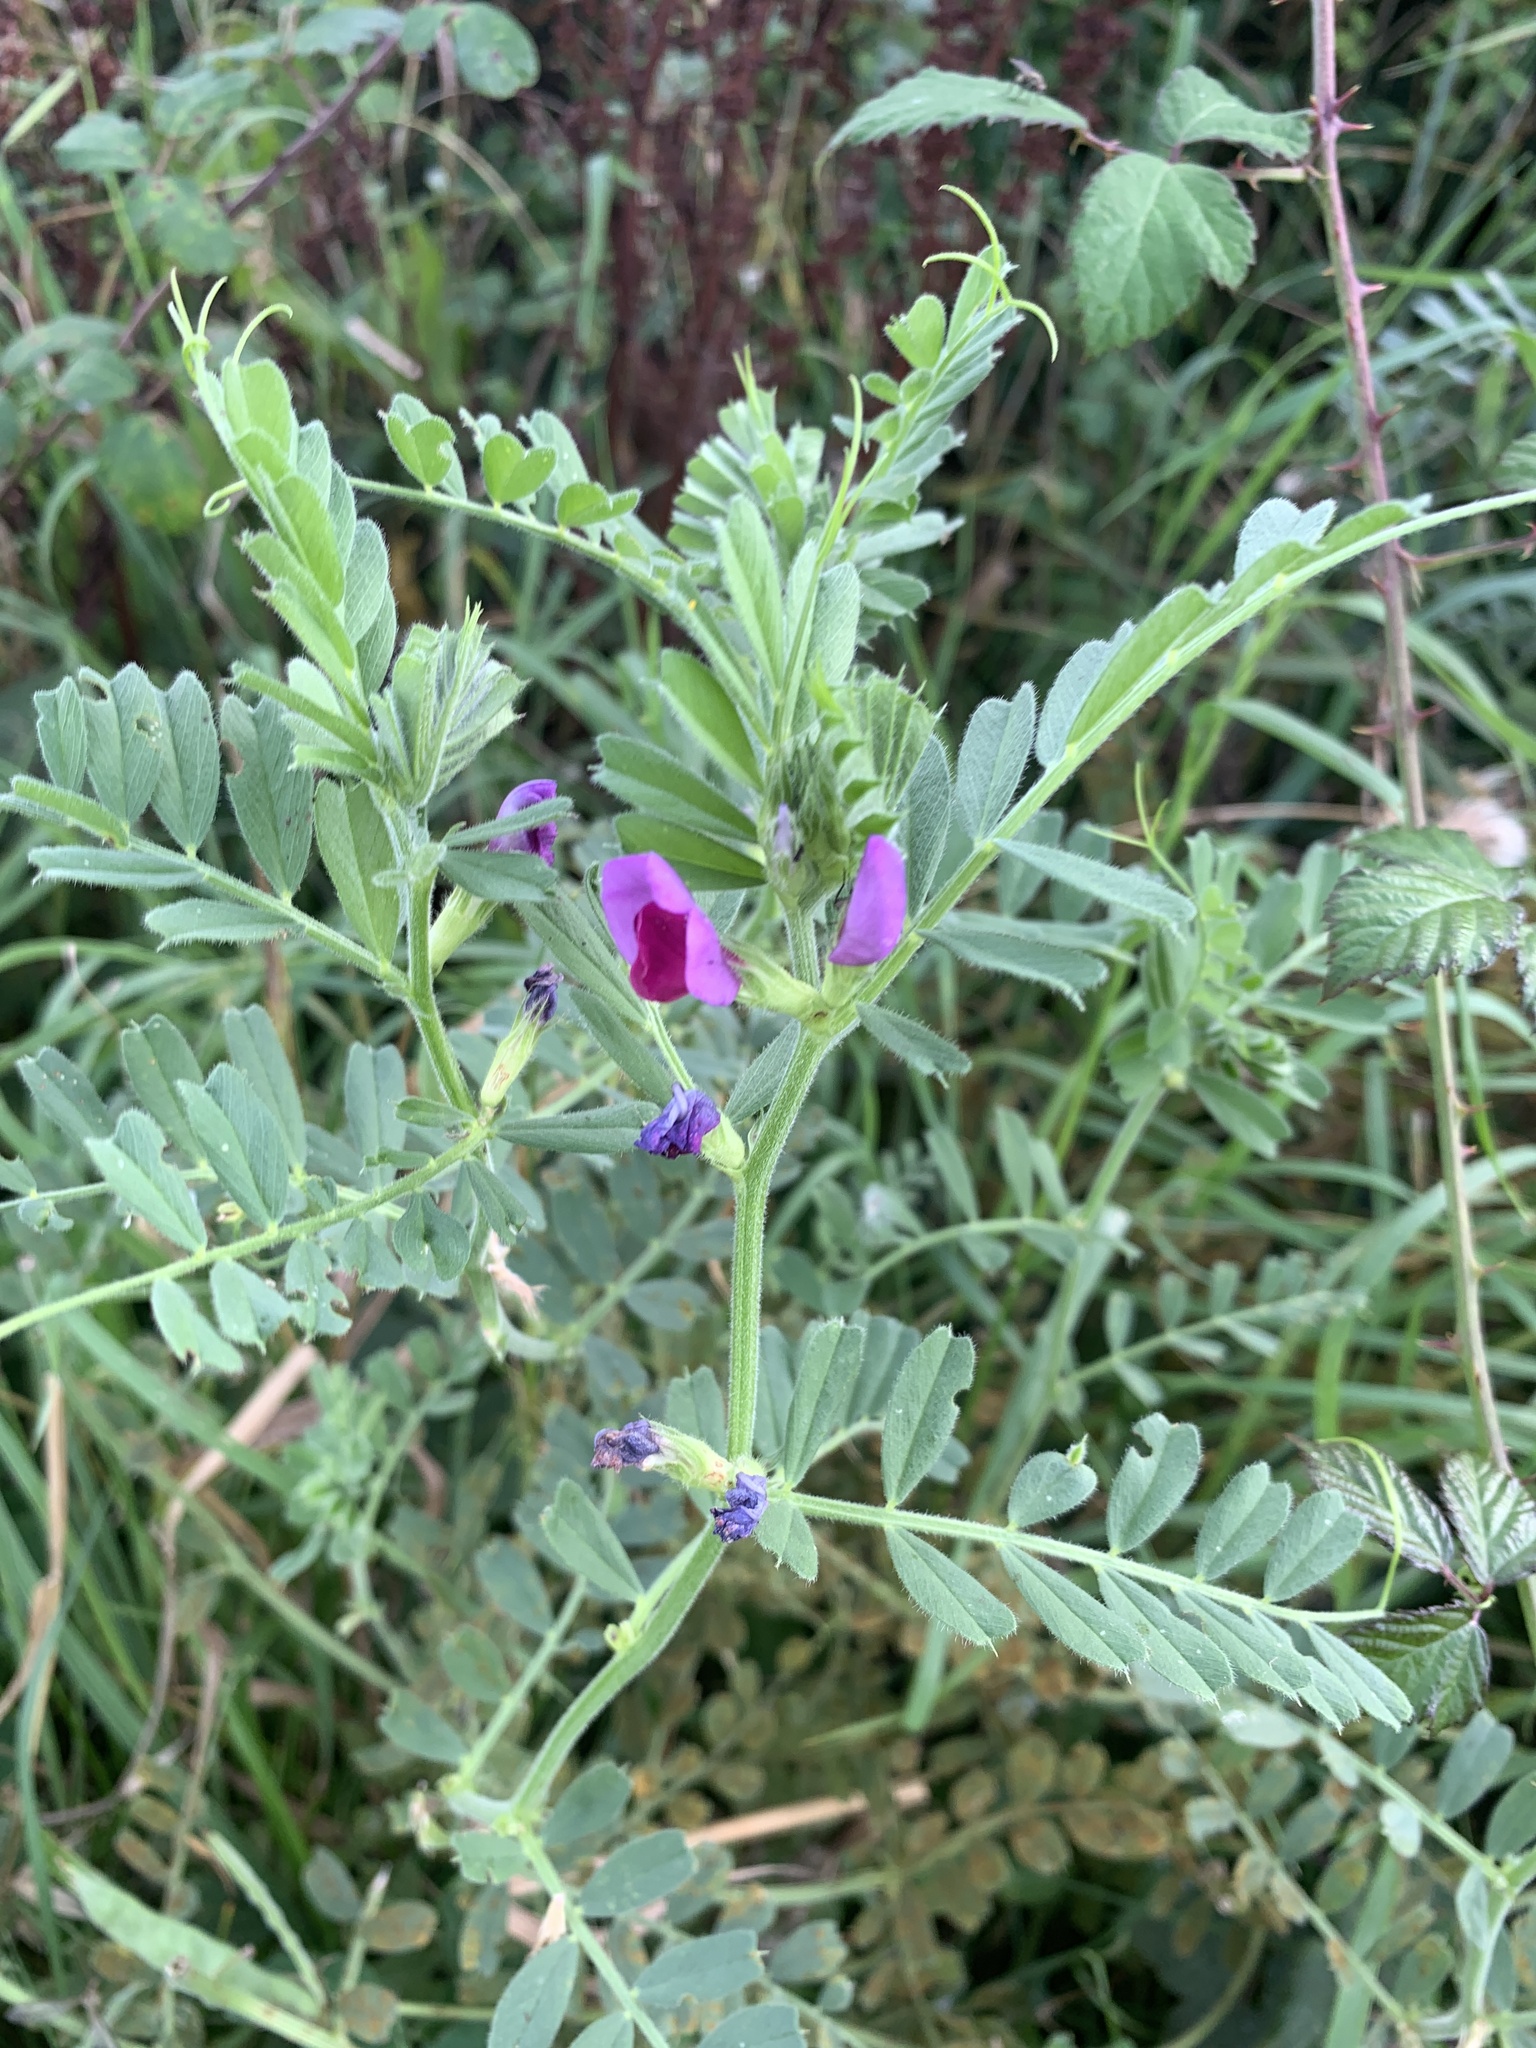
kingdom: Plantae
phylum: Tracheophyta
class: Magnoliopsida
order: Fabales
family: Fabaceae
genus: Vicia
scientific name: Vicia sativa
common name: Garden vetch
